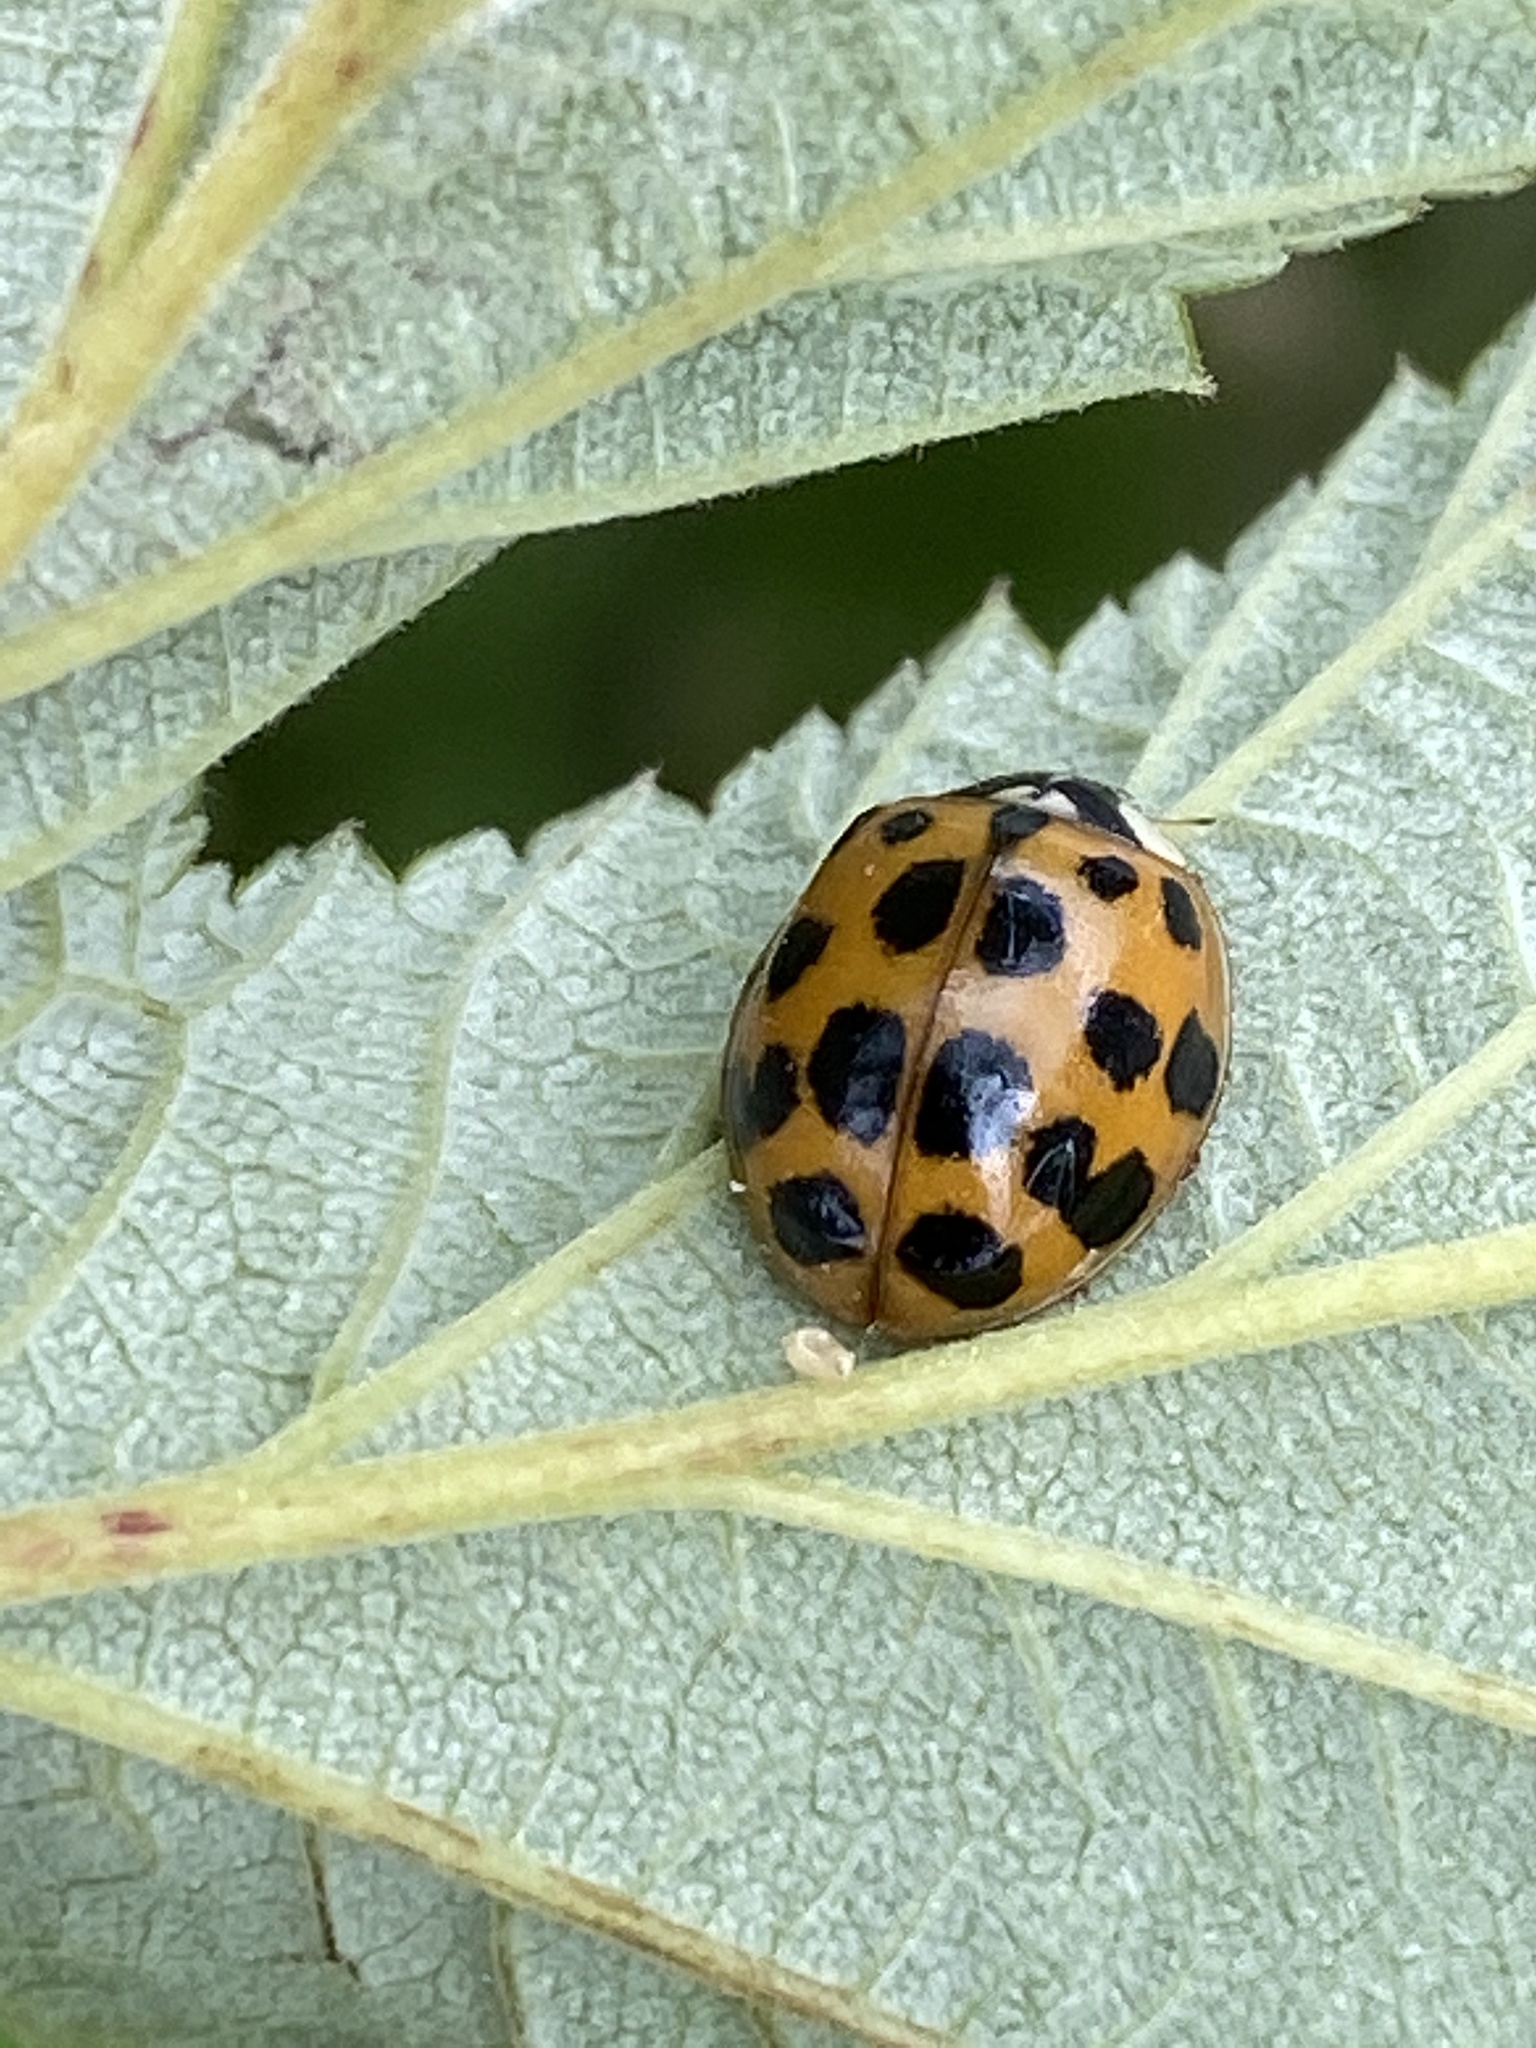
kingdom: Animalia
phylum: Arthropoda
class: Insecta
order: Coleoptera
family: Coccinellidae
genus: Harmonia
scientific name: Harmonia axyridis
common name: Harlequin ladybird
